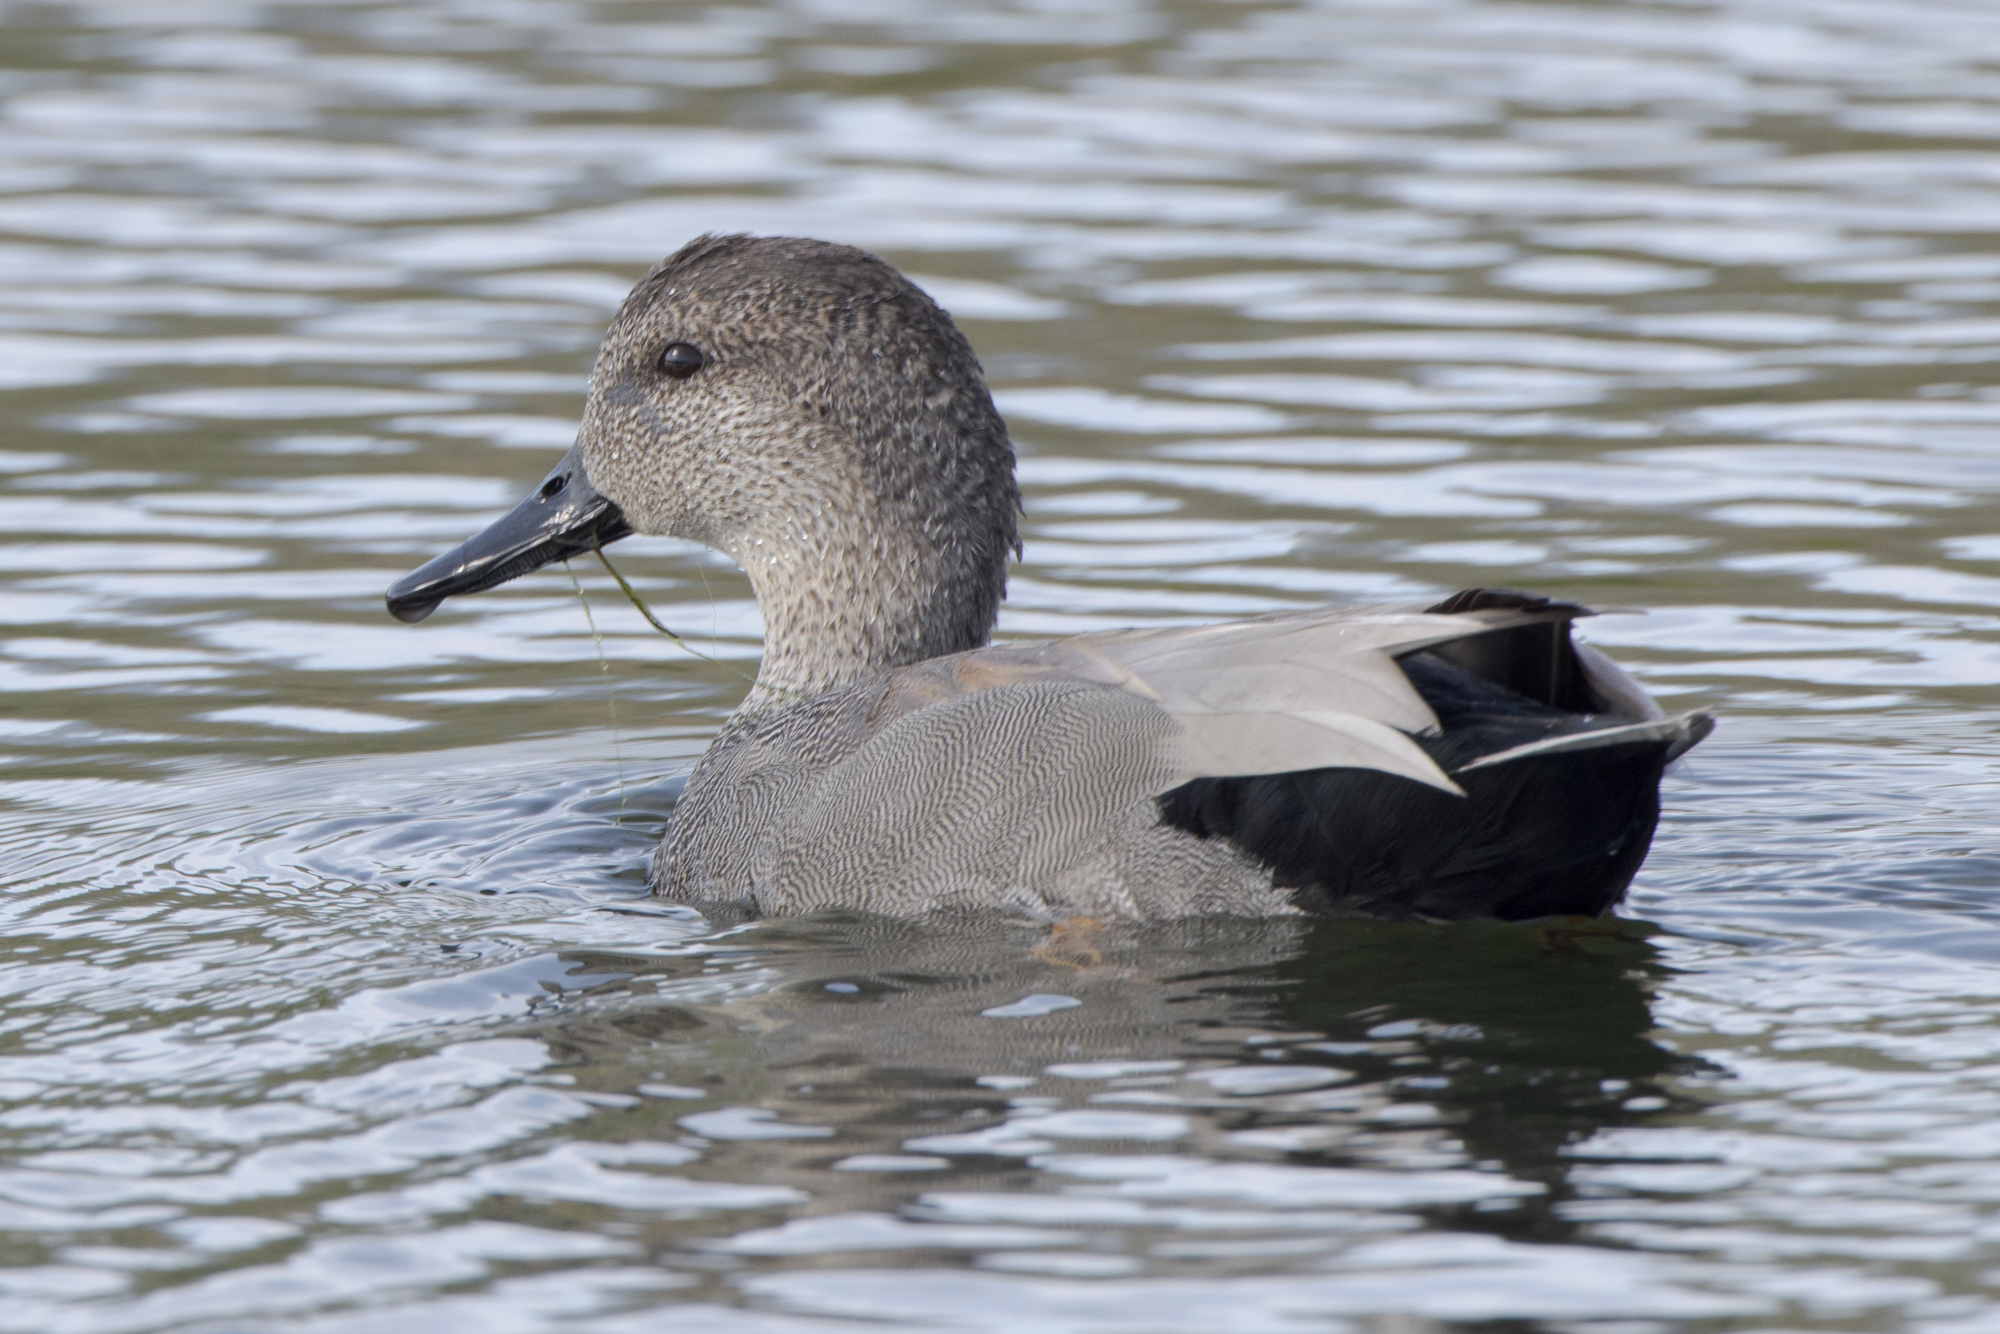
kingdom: Animalia
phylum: Chordata
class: Aves
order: Anseriformes
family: Anatidae
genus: Mareca
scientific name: Mareca strepera
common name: Gadwall
